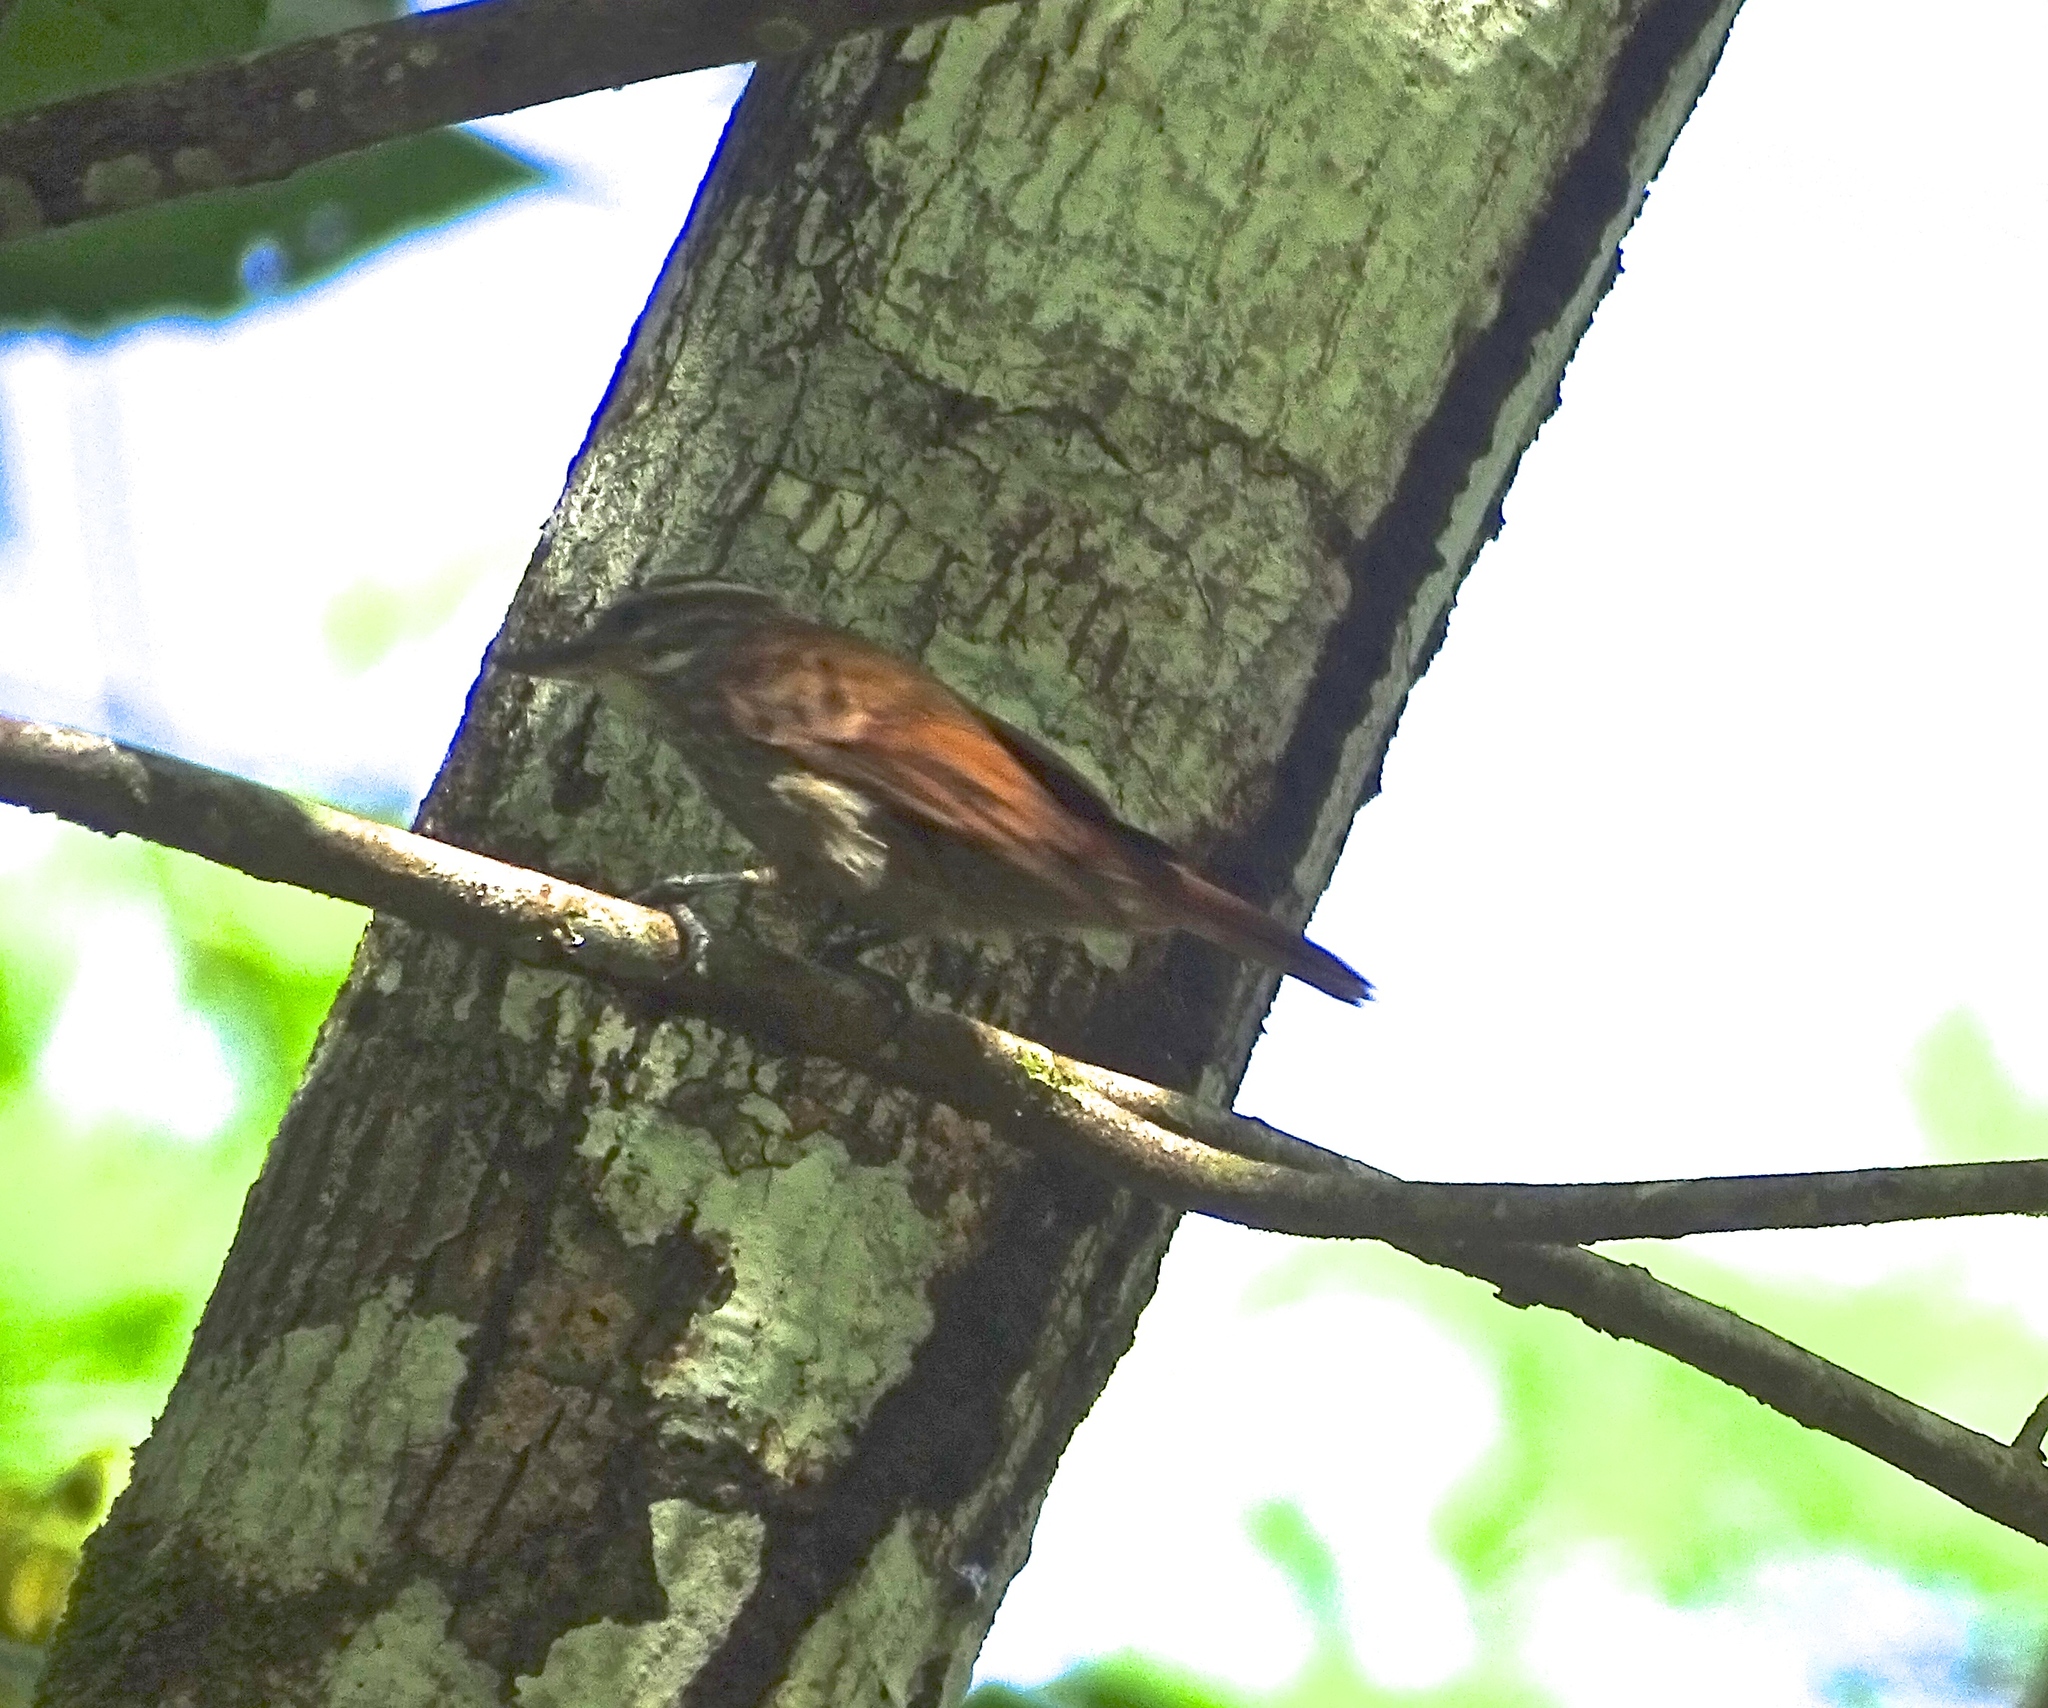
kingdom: Animalia
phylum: Chordata
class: Aves
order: Passeriformes
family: Furnariidae
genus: Xenops
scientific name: Xenops rutilans
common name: Streaked xenops
